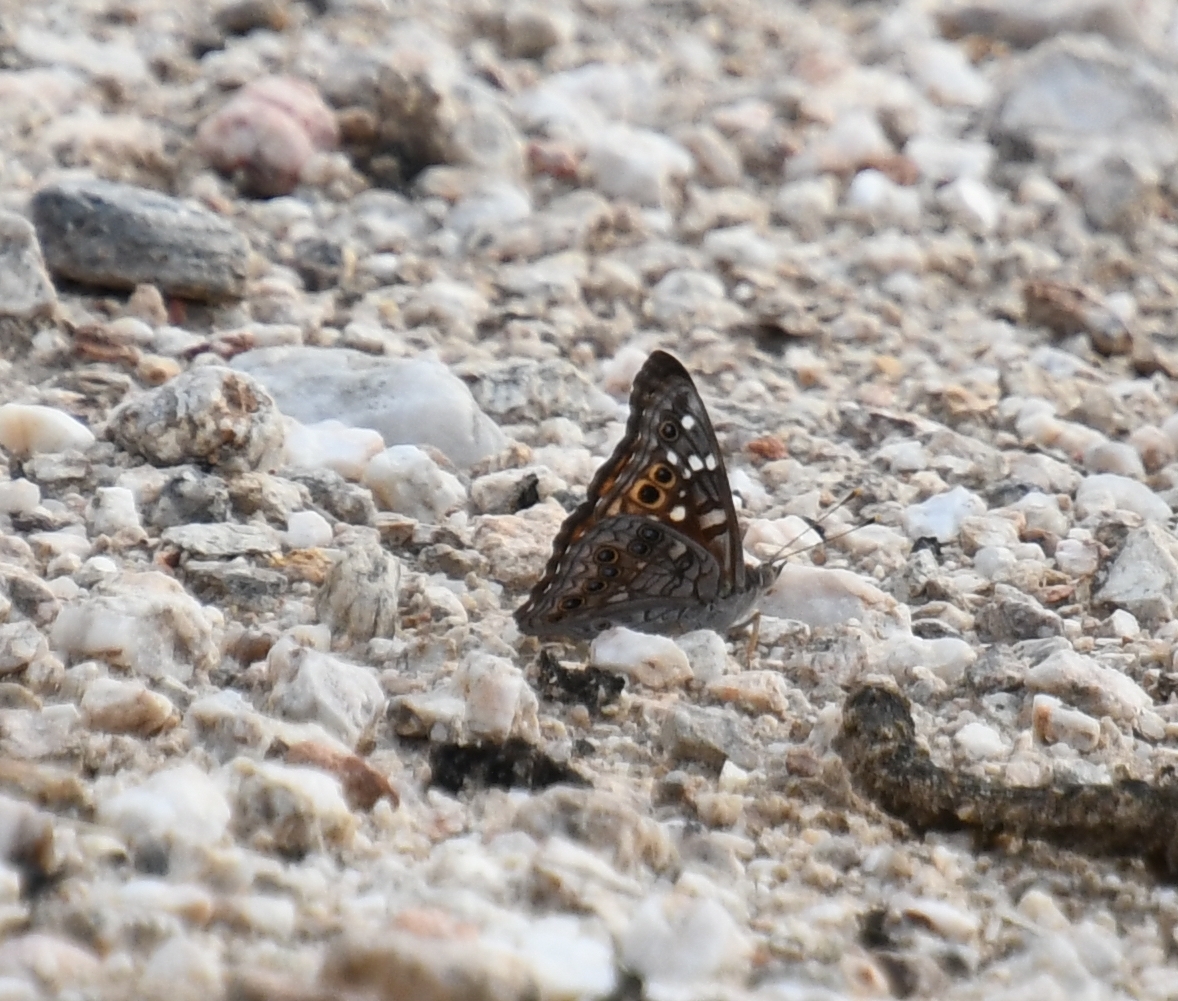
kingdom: Animalia
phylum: Arthropoda
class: Insecta
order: Lepidoptera
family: Nymphalidae
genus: Asterocampa
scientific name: Asterocampa leilia
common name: Empress leilia
